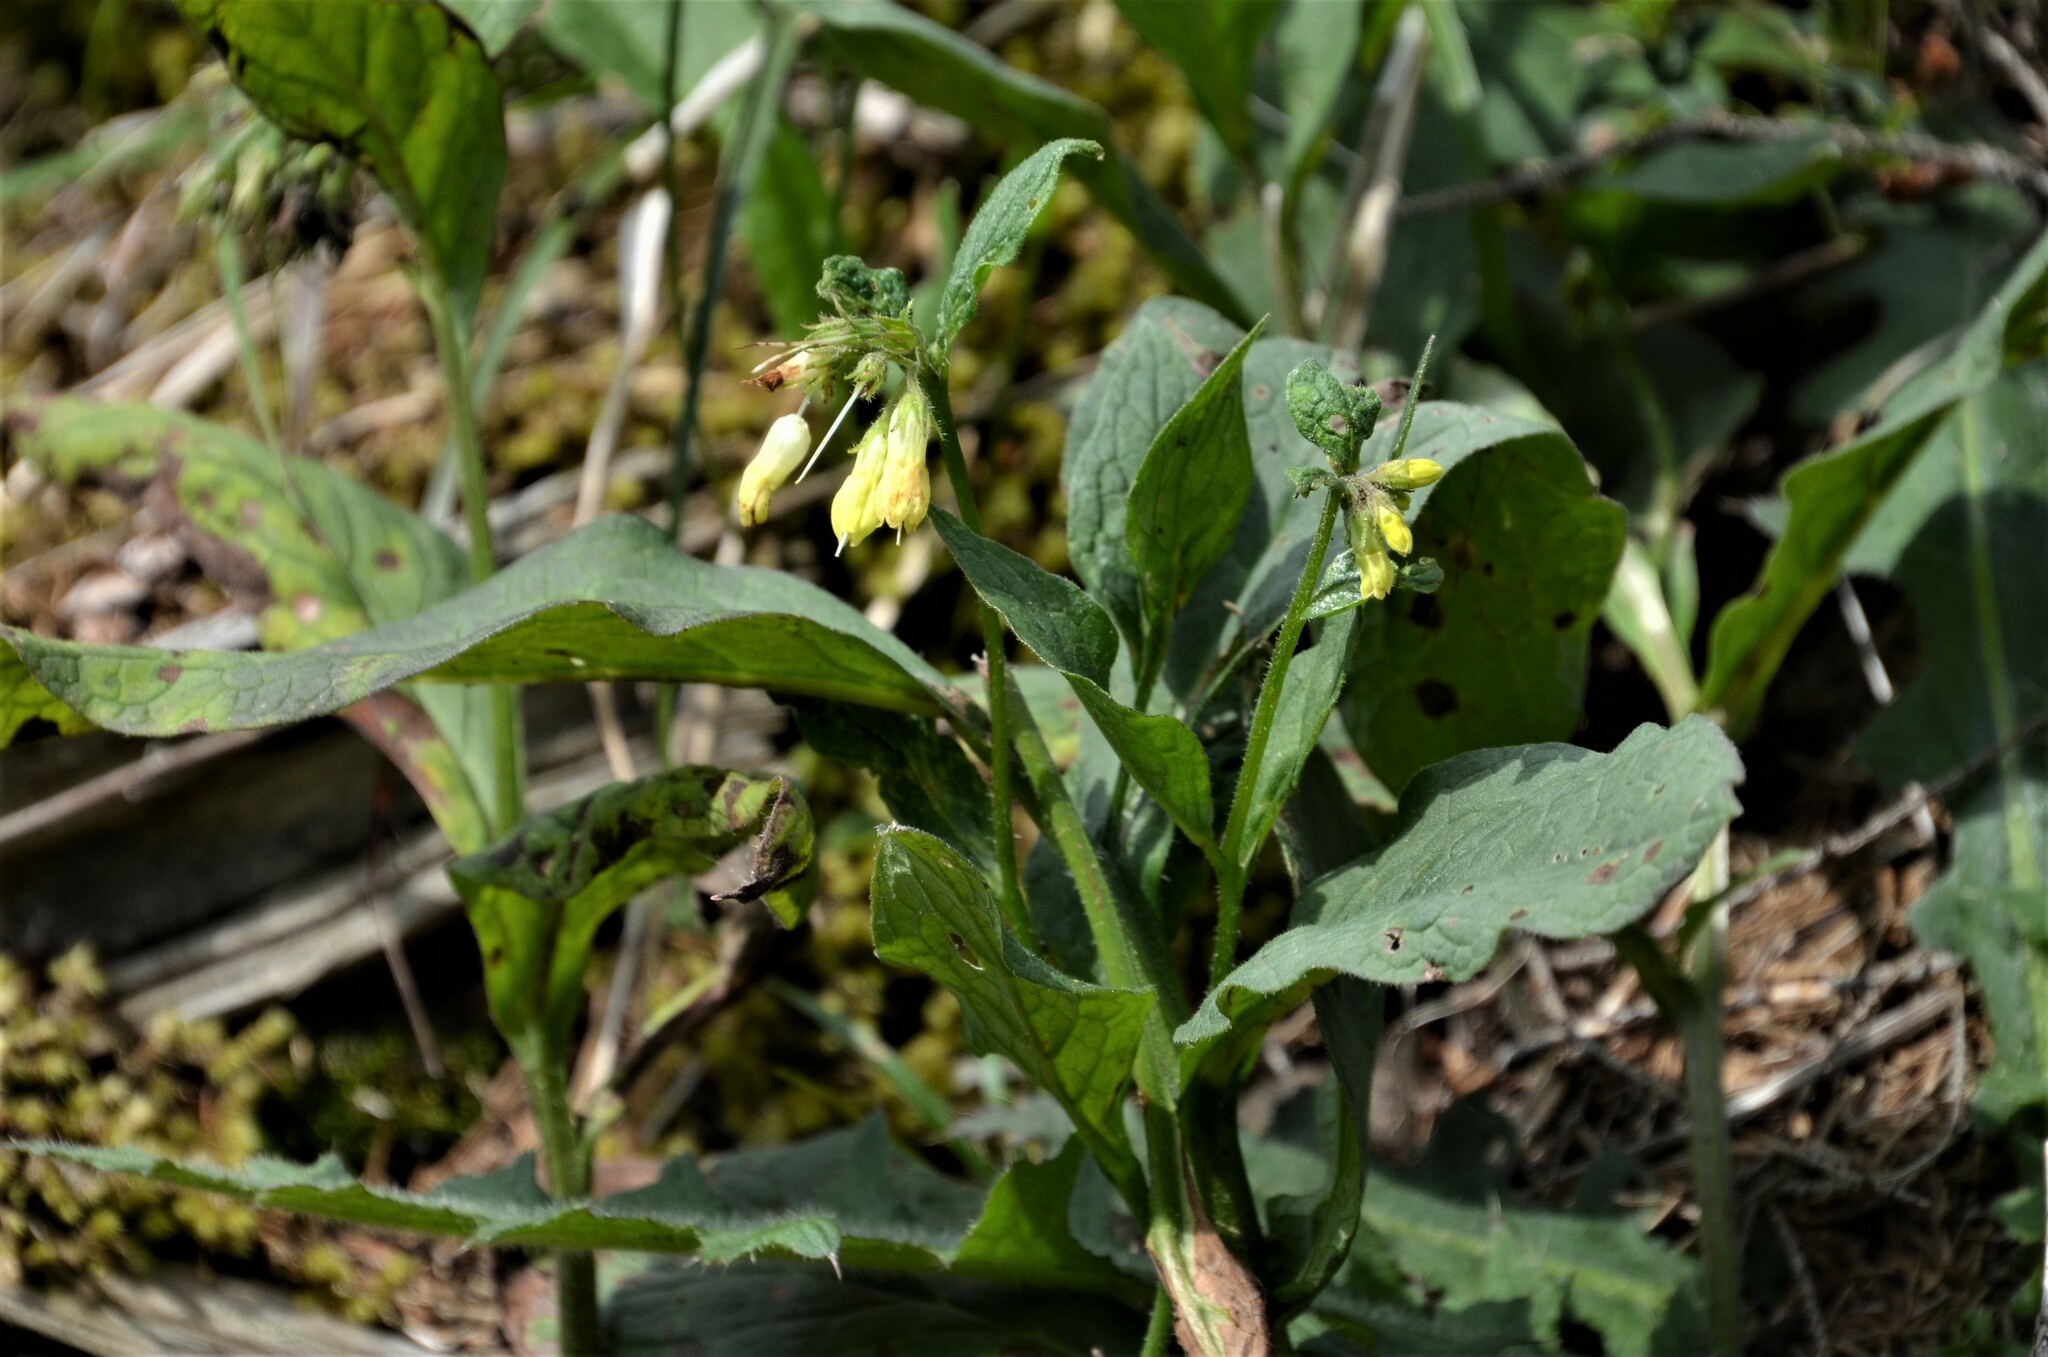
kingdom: Plantae
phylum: Tracheophyta
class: Magnoliopsida
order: Boraginales
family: Boraginaceae
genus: Symphytum
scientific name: Symphytum tuberosum
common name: Tuberous comfrey
